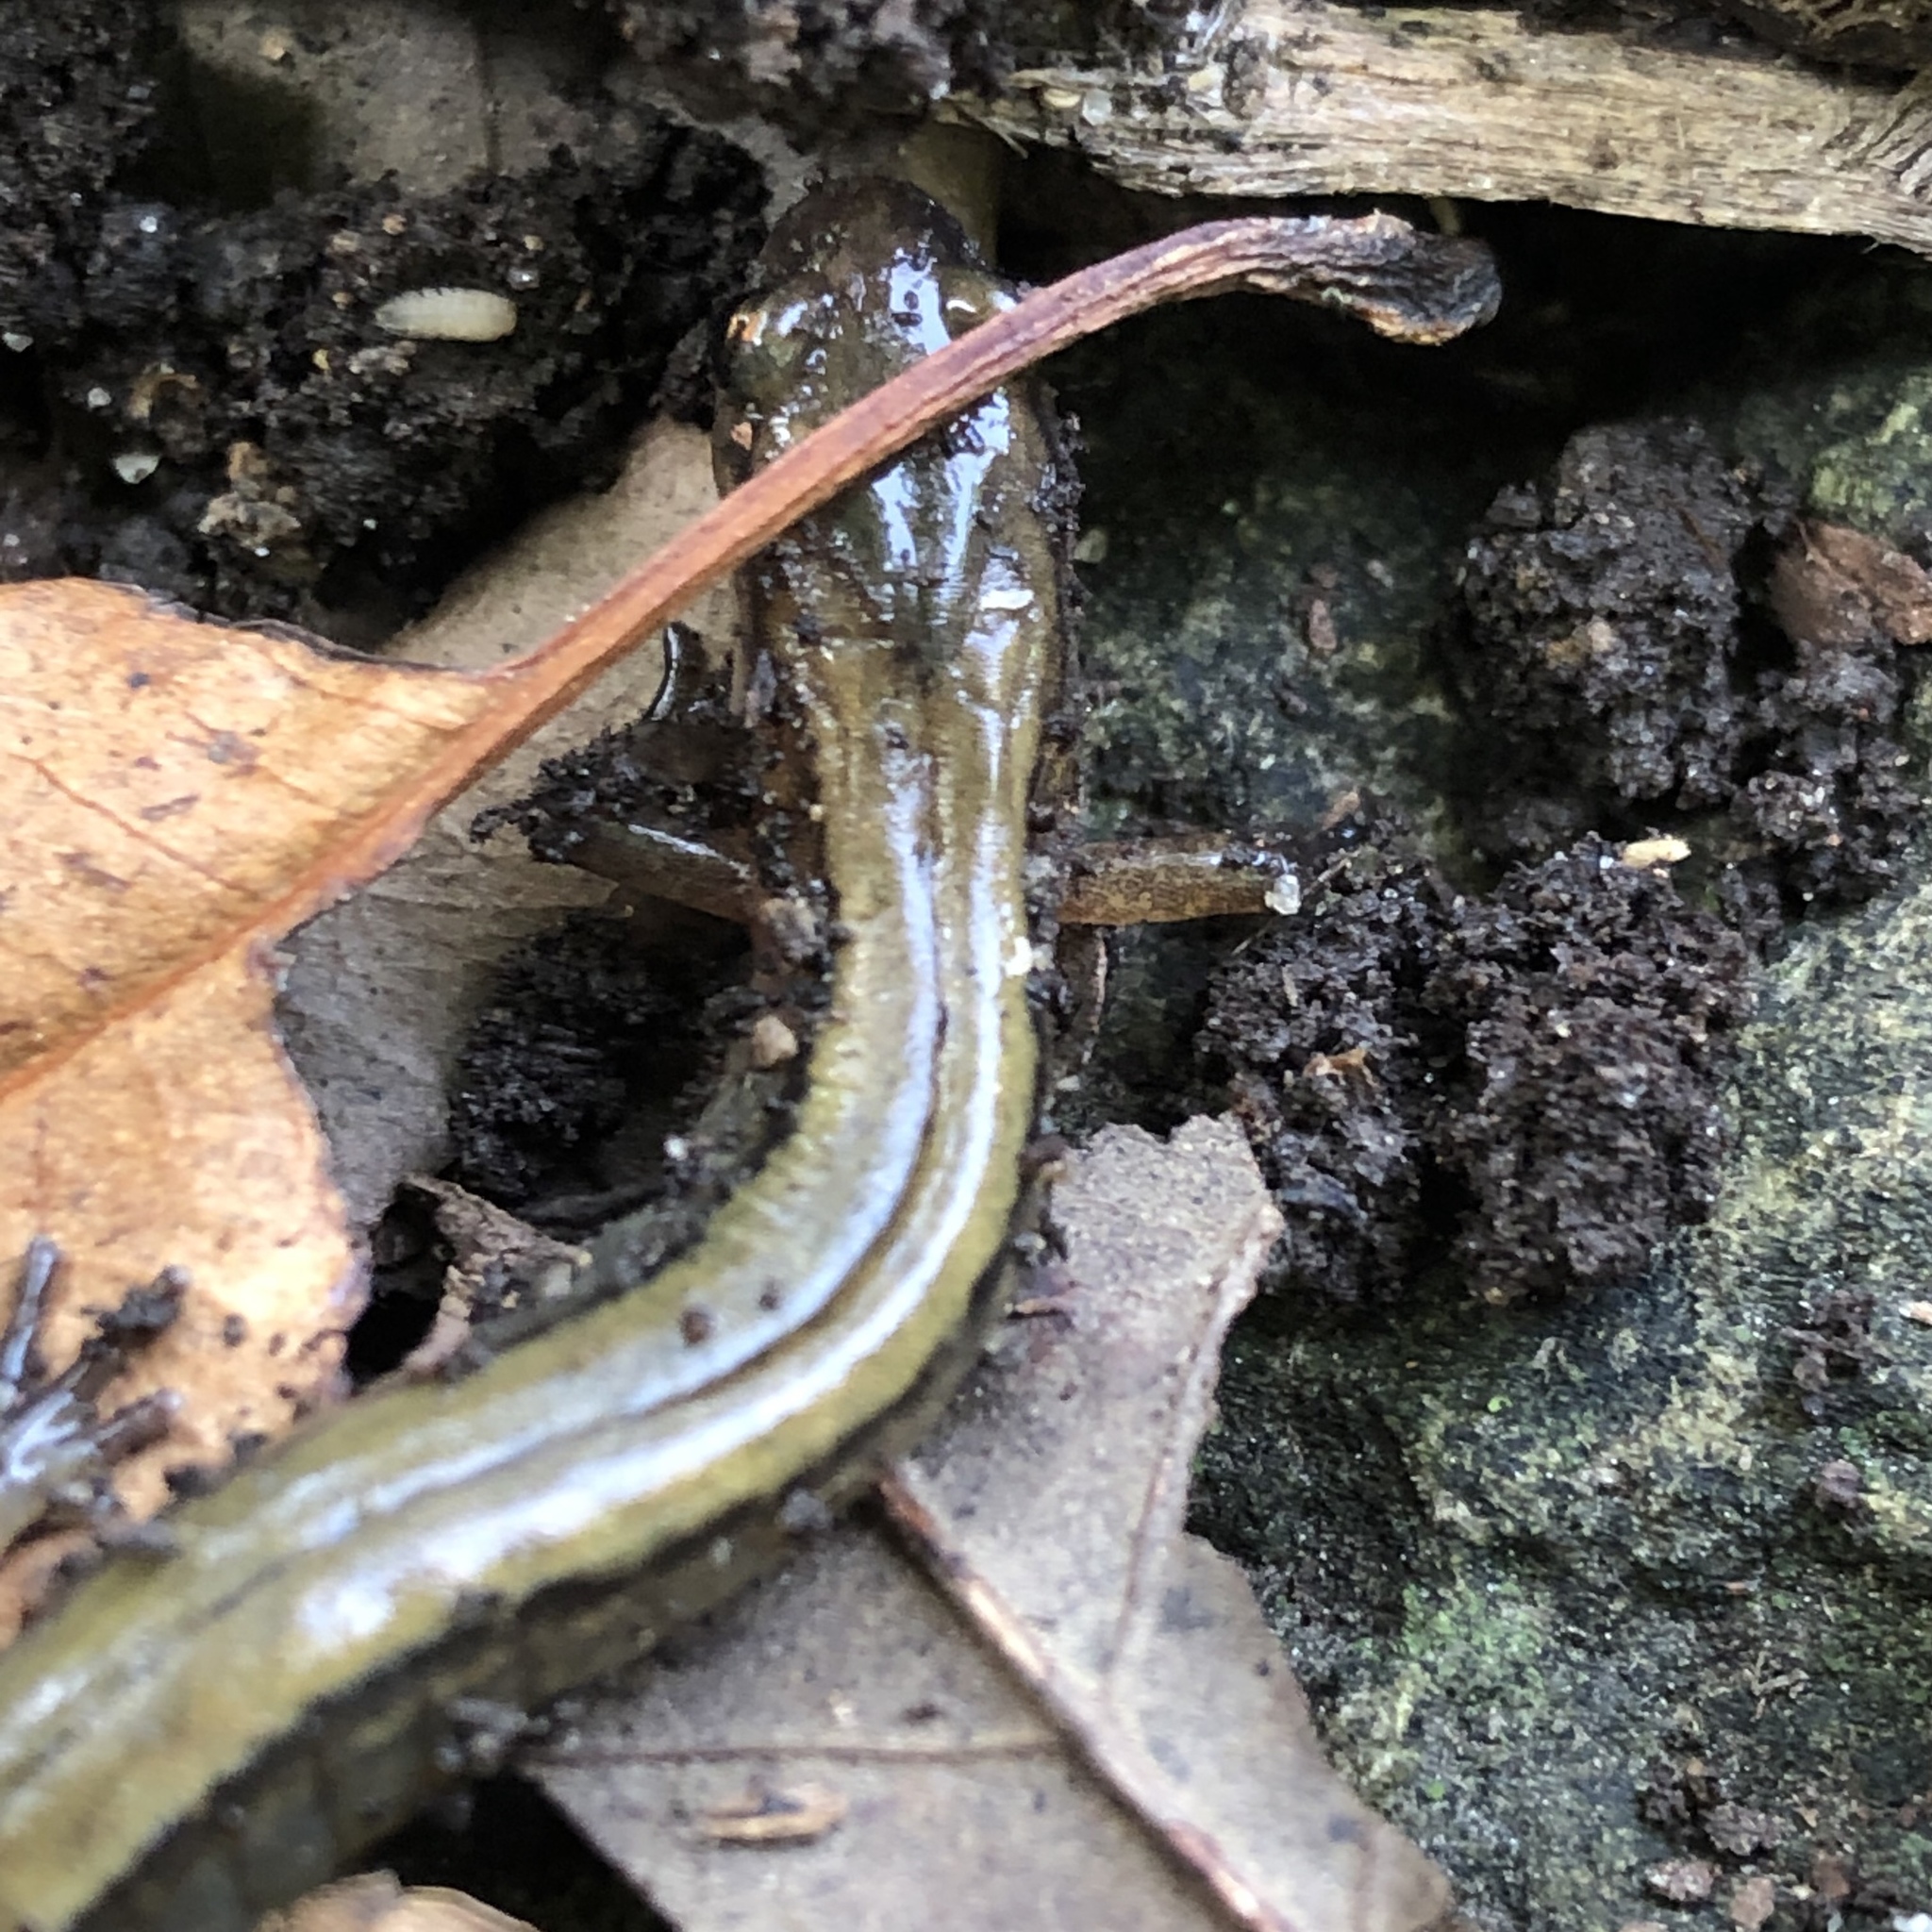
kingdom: Animalia
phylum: Chordata
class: Amphibia
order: Caudata
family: Plethodontidae
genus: Eurycea
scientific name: Eurycea cirrigera
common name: Southern two-lined salamander
